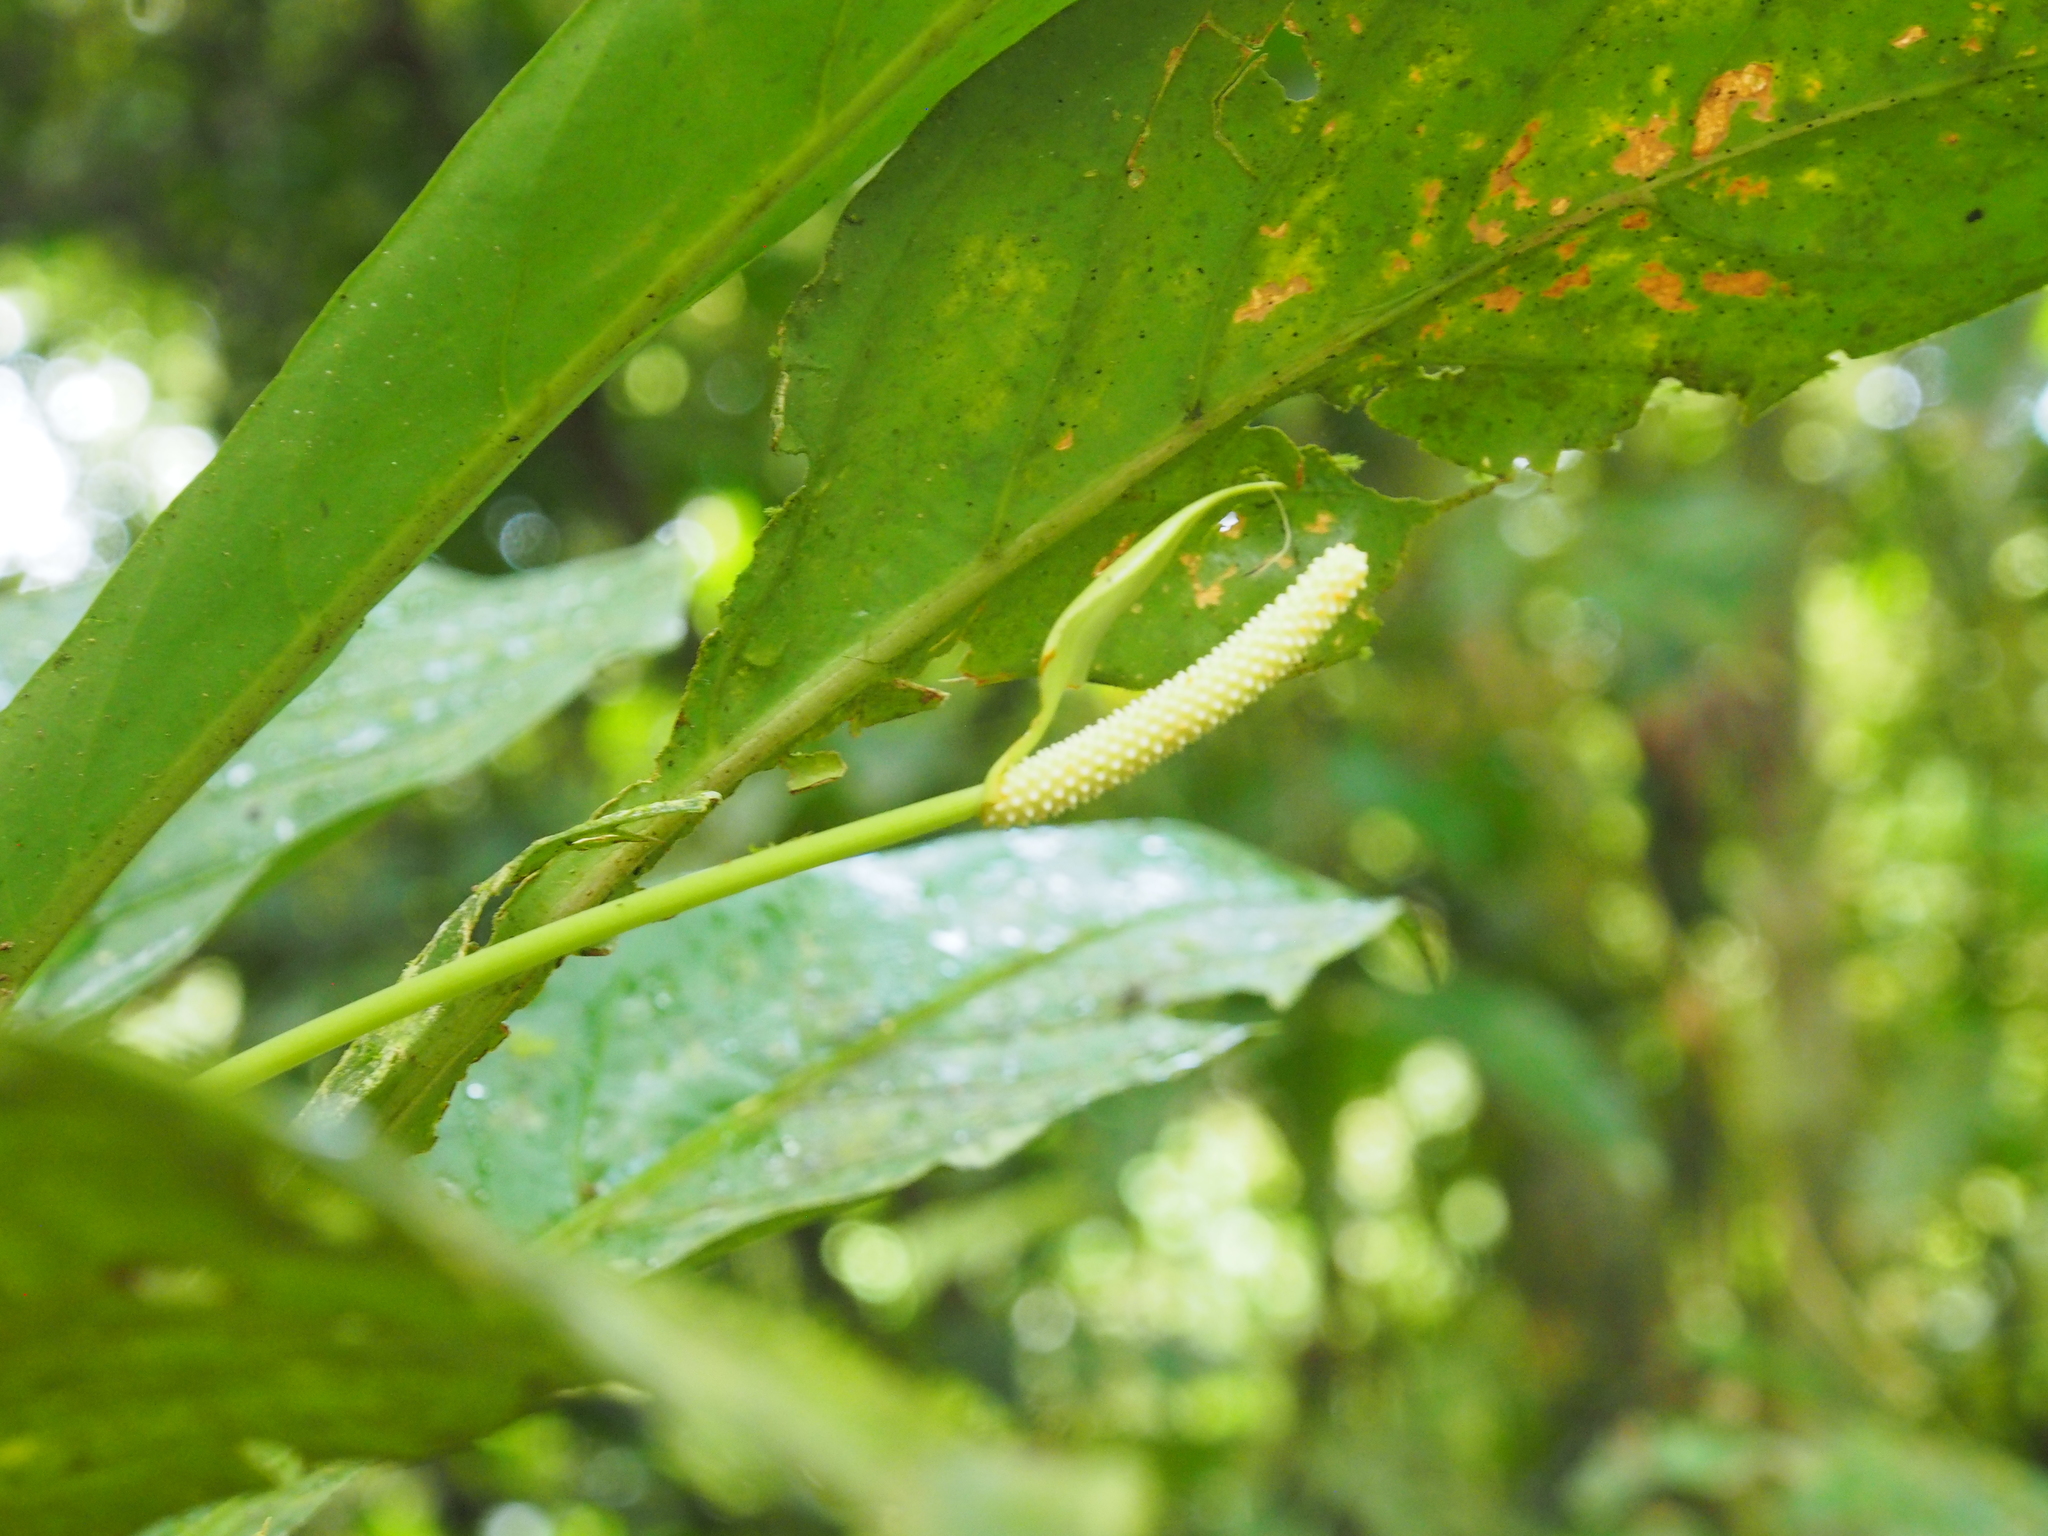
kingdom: Plantae
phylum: Tracheophyta
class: Liliopsida
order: Alismatales
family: Araceae
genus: Anthurium
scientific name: Anthurium consobrinum
